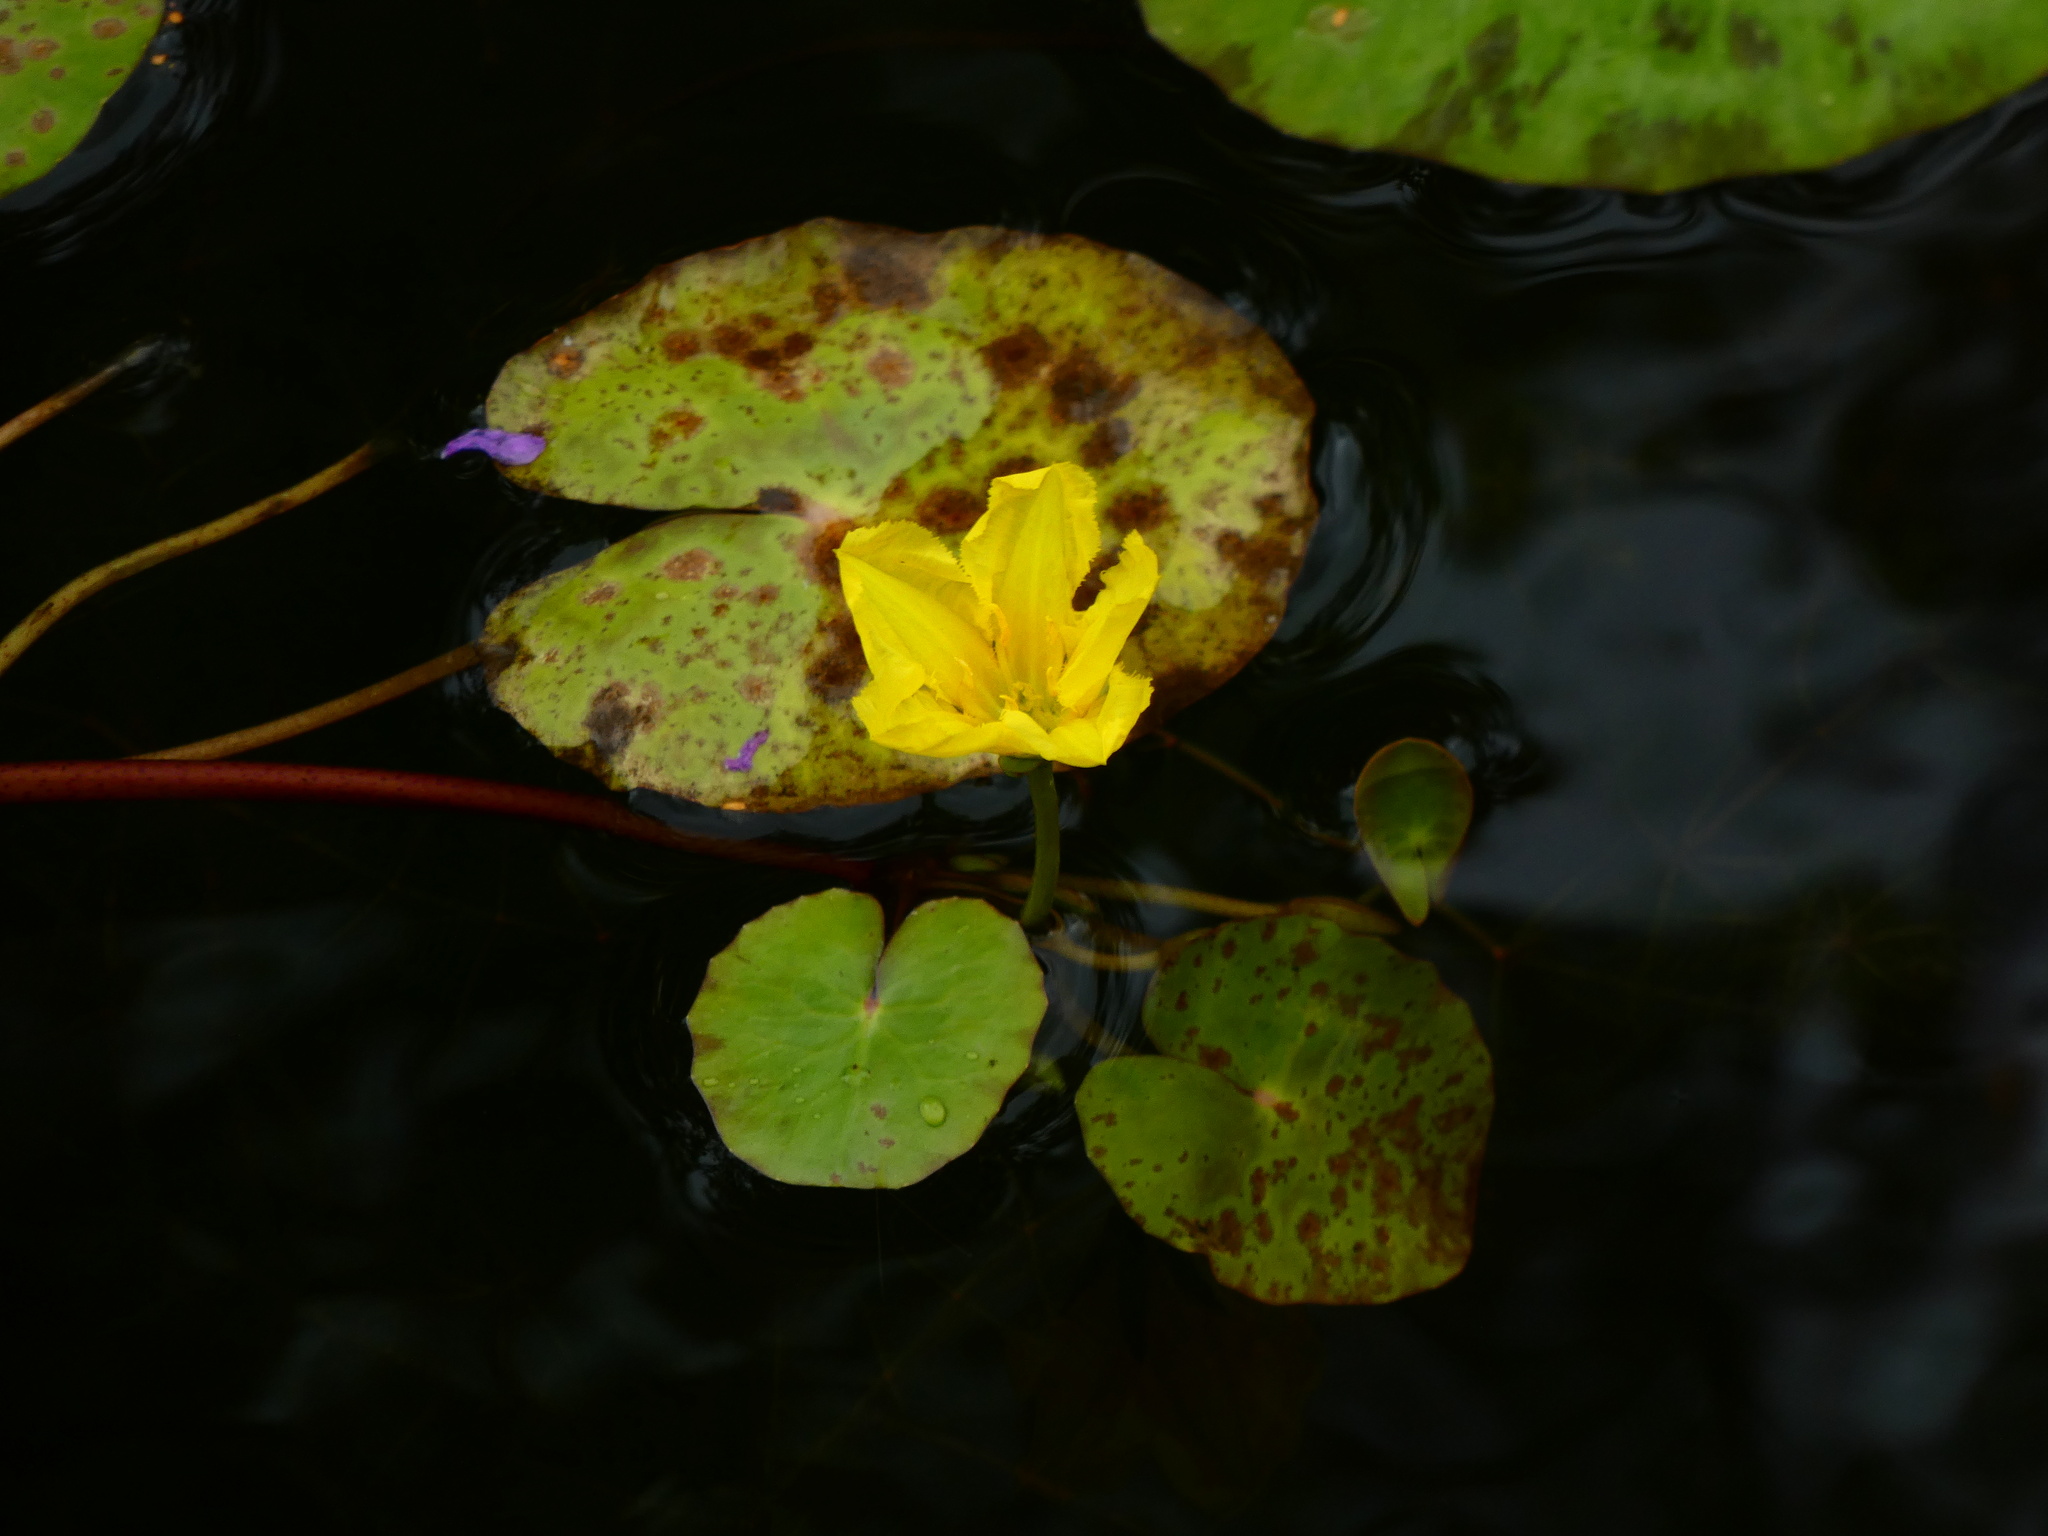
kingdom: Plantae
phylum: Tracheophyta
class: Magnoliopsida
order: Asterales
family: Menyanthaceae
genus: Nymphoides
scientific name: Nymphoides peltata
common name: Fringed water-lily
